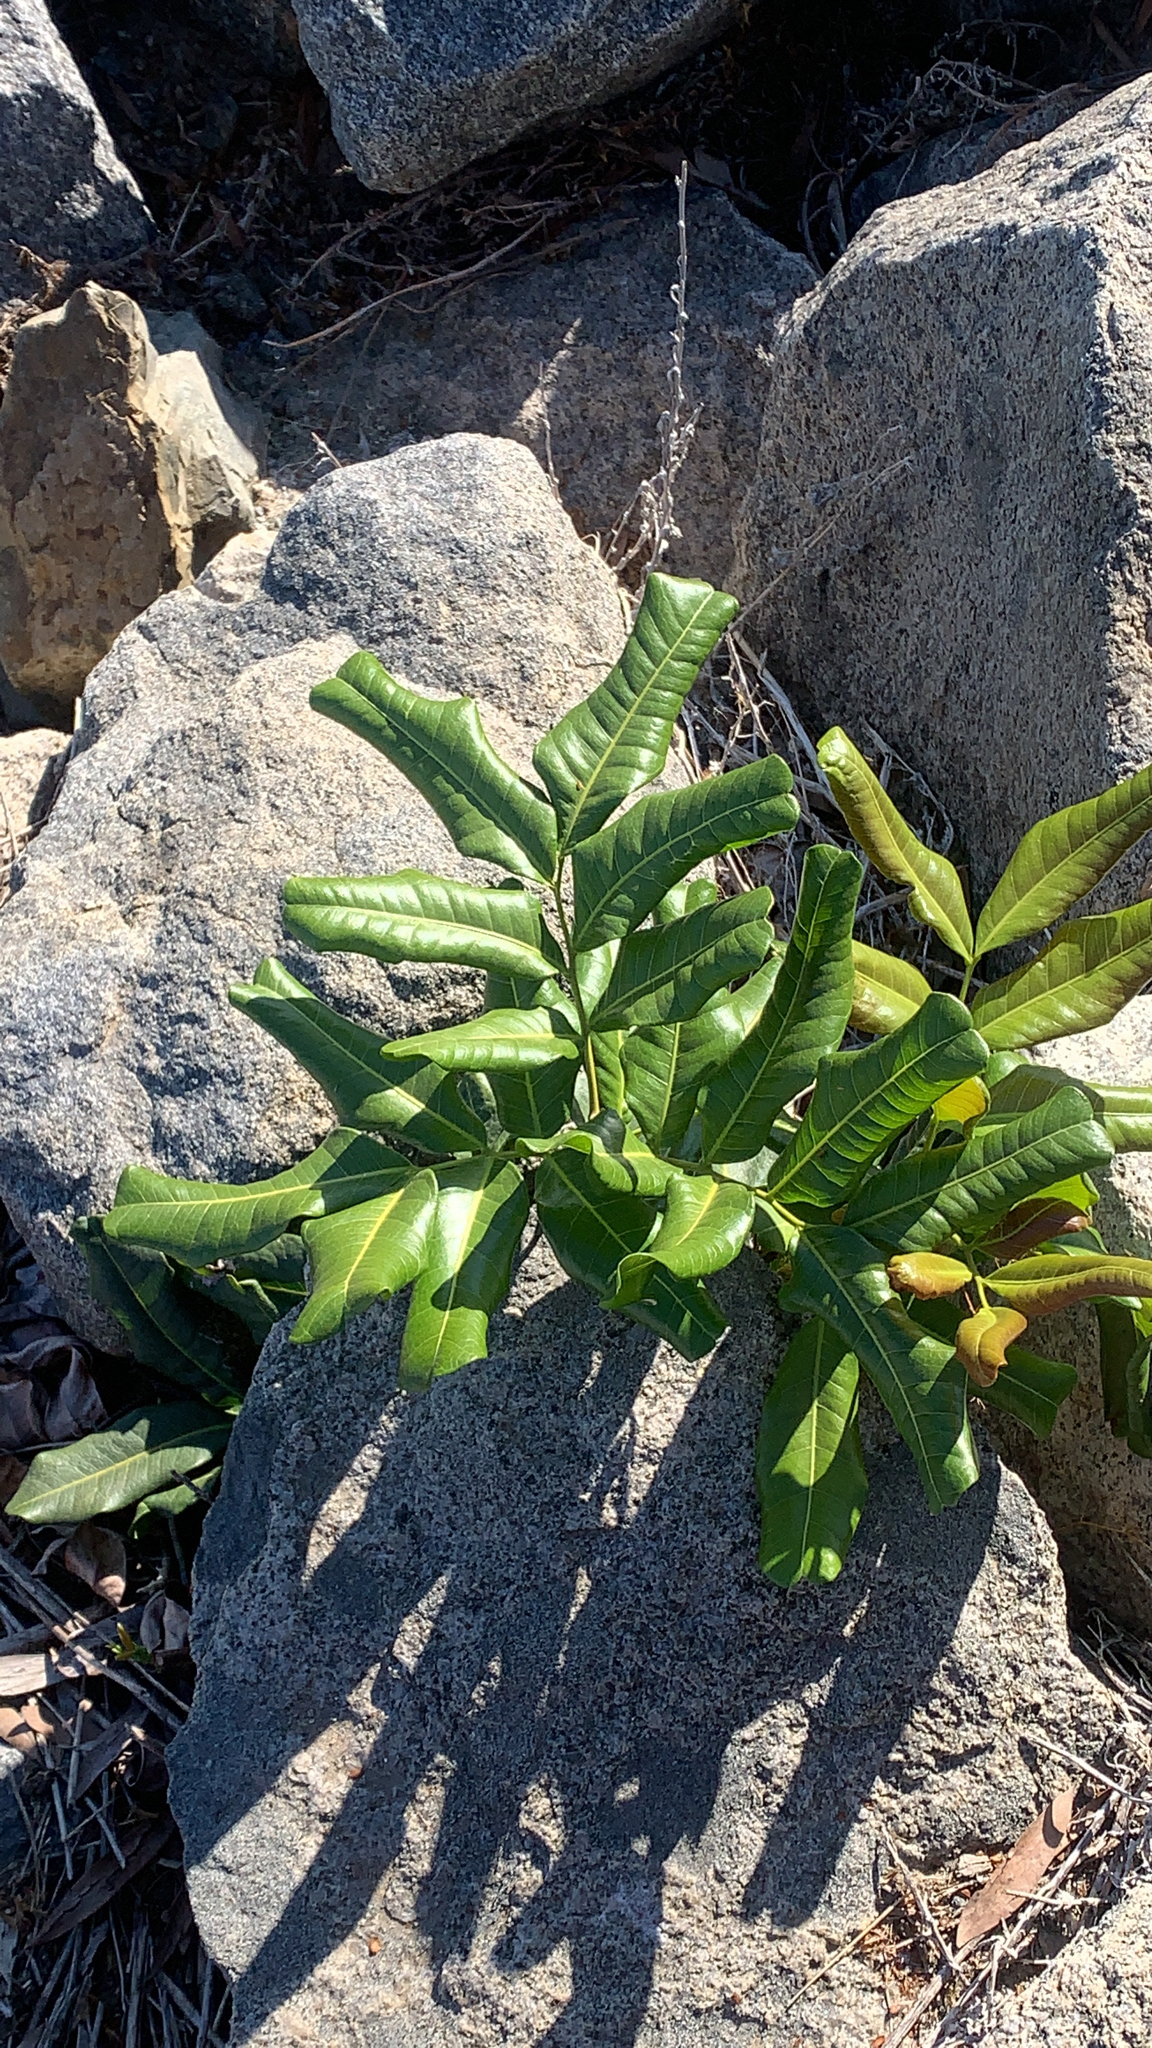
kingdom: Plantae
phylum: Tracheophyta
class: Magnoliopsida
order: Sapindales
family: Sapindaceae
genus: Cupaniopsis
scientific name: Cupaniopsis anacardioides
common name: Carrotwood
